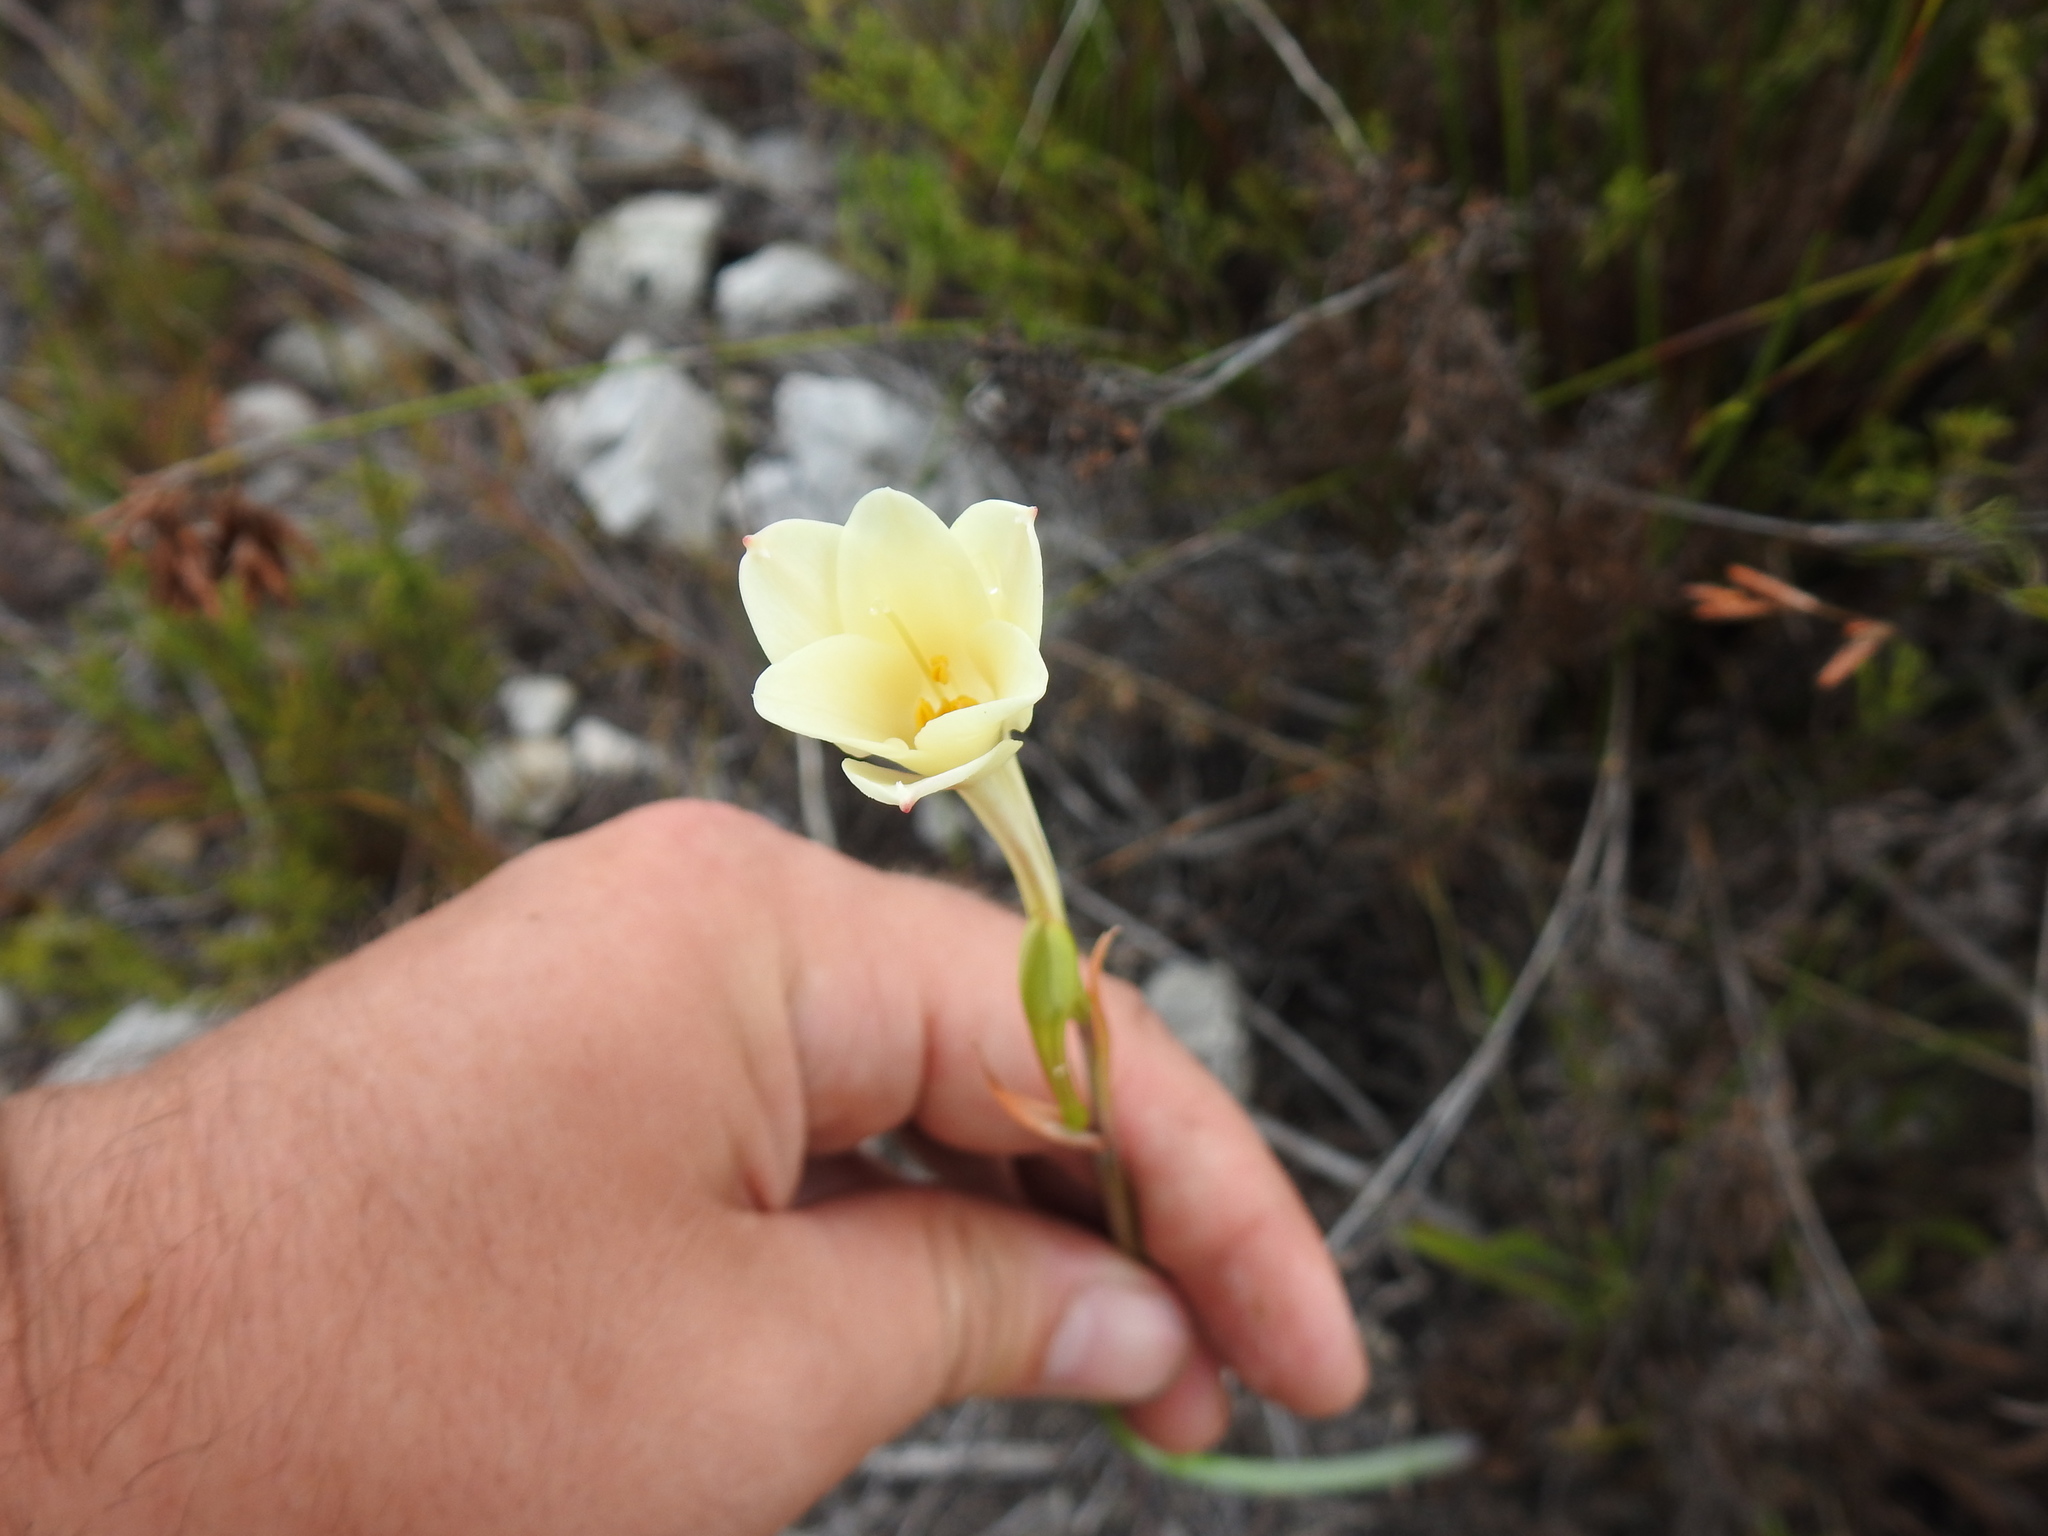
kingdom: Plantae
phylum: Tracheophyta
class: Liliopsida
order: Asparagales
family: Amaryllidaceae
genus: Cyrtanthus
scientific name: Cyrtanthus leucanthus
